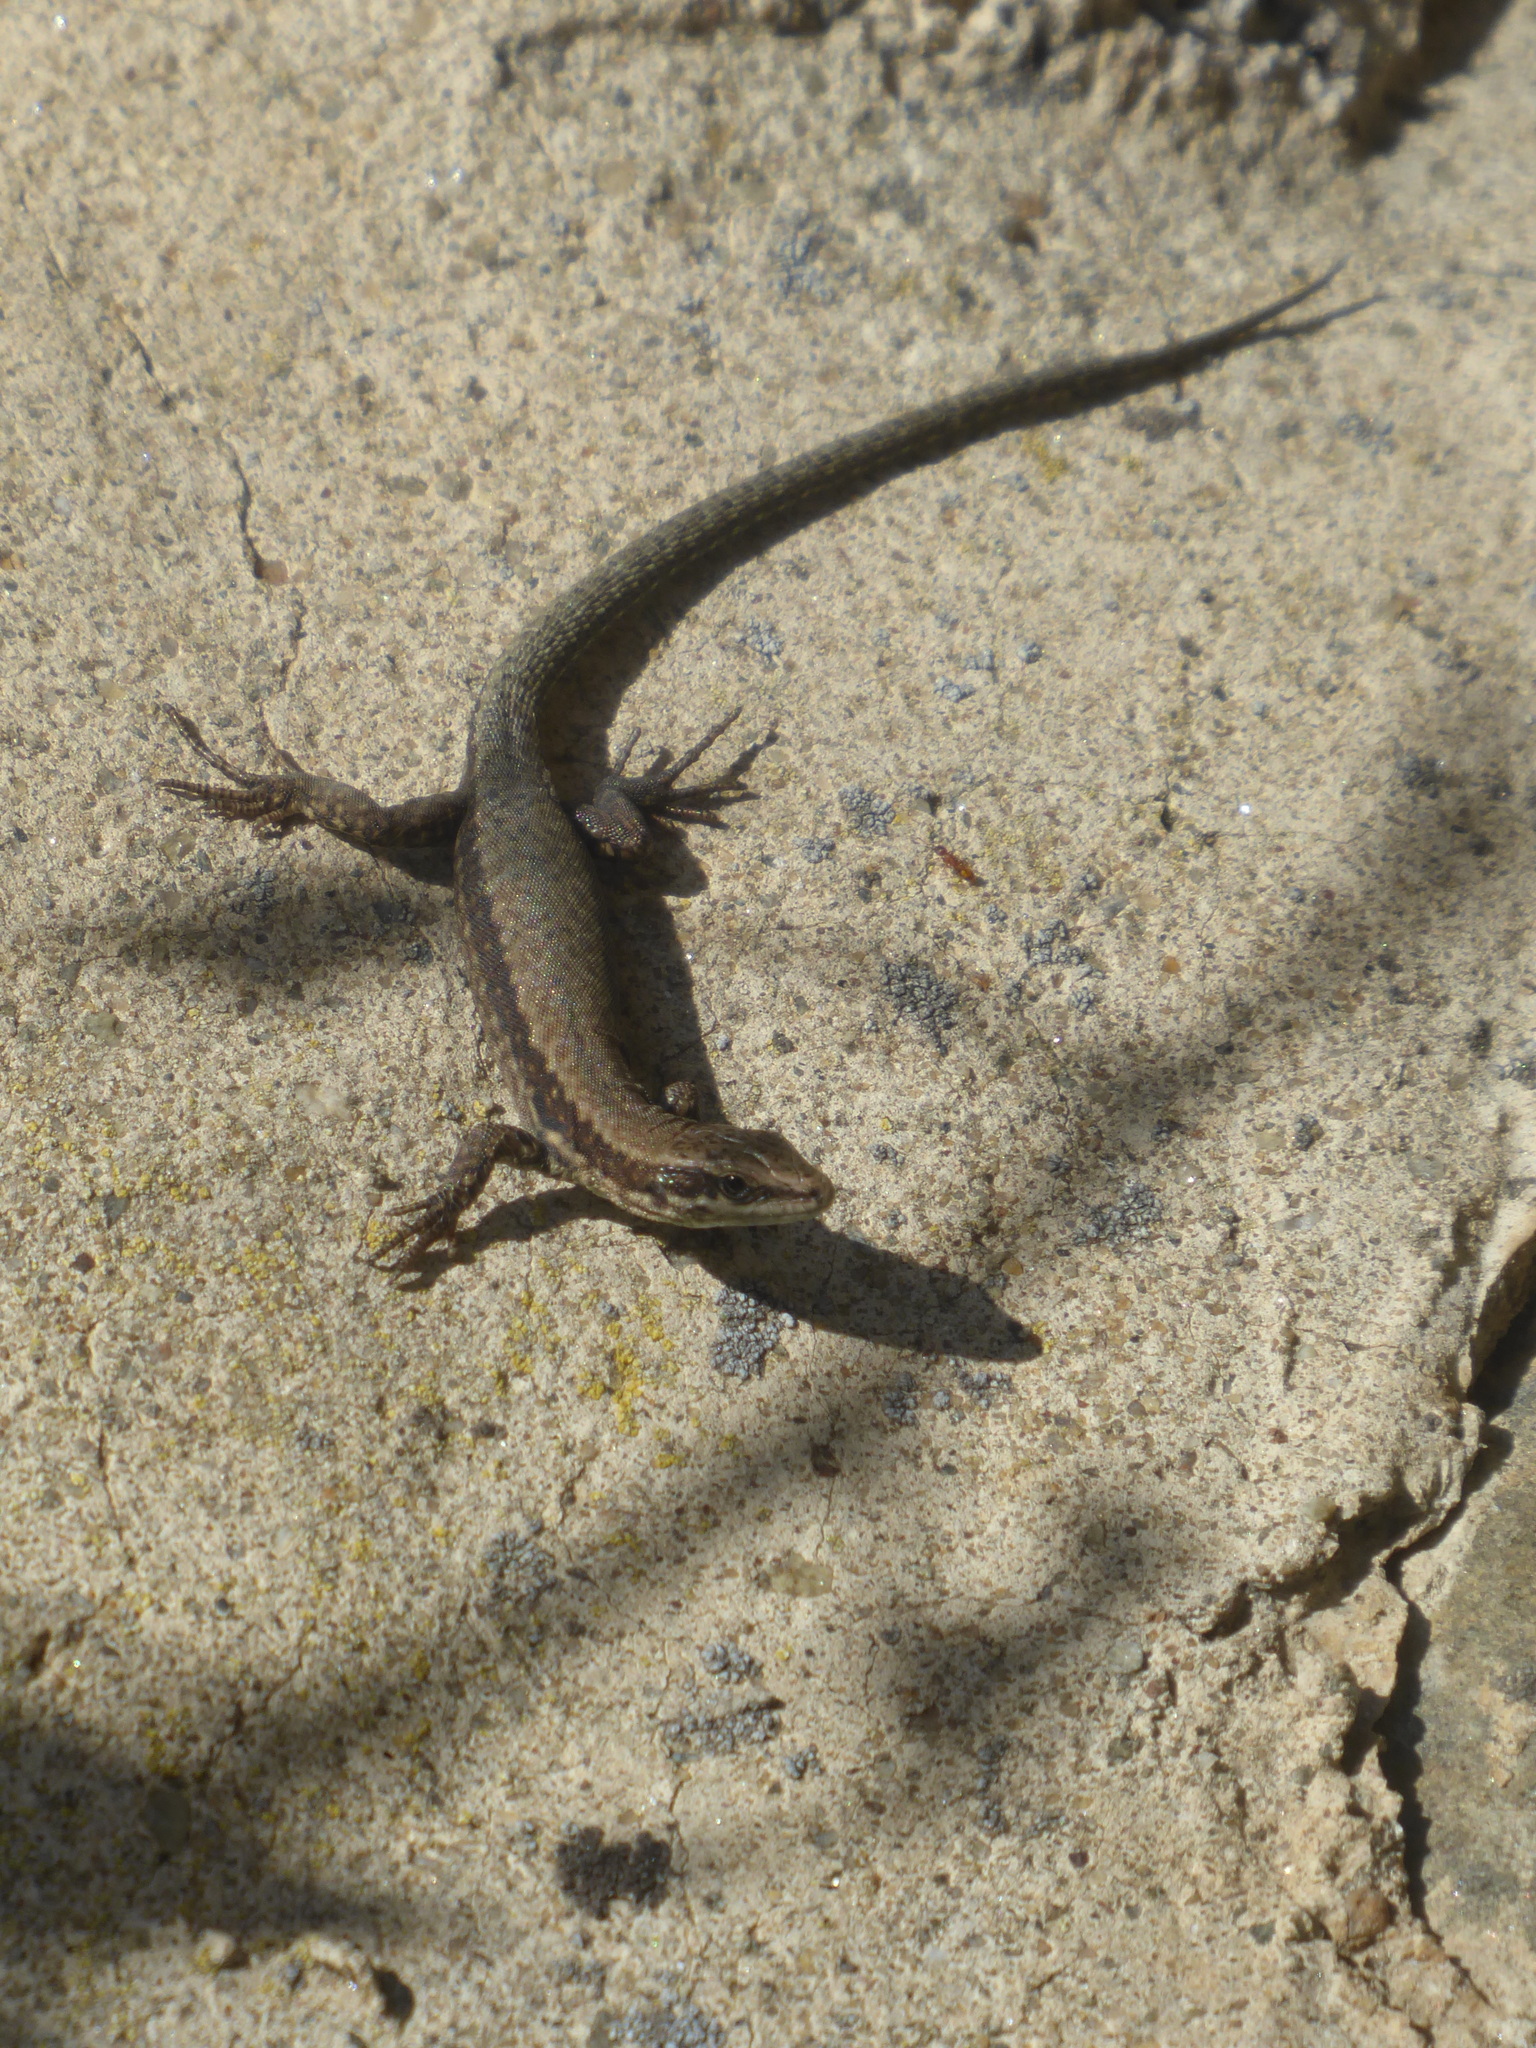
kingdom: Animalia
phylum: Chordata
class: Squamata
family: Lacertidae
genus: Podarcis
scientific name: Podarcis muralis
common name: Common wall lizard
